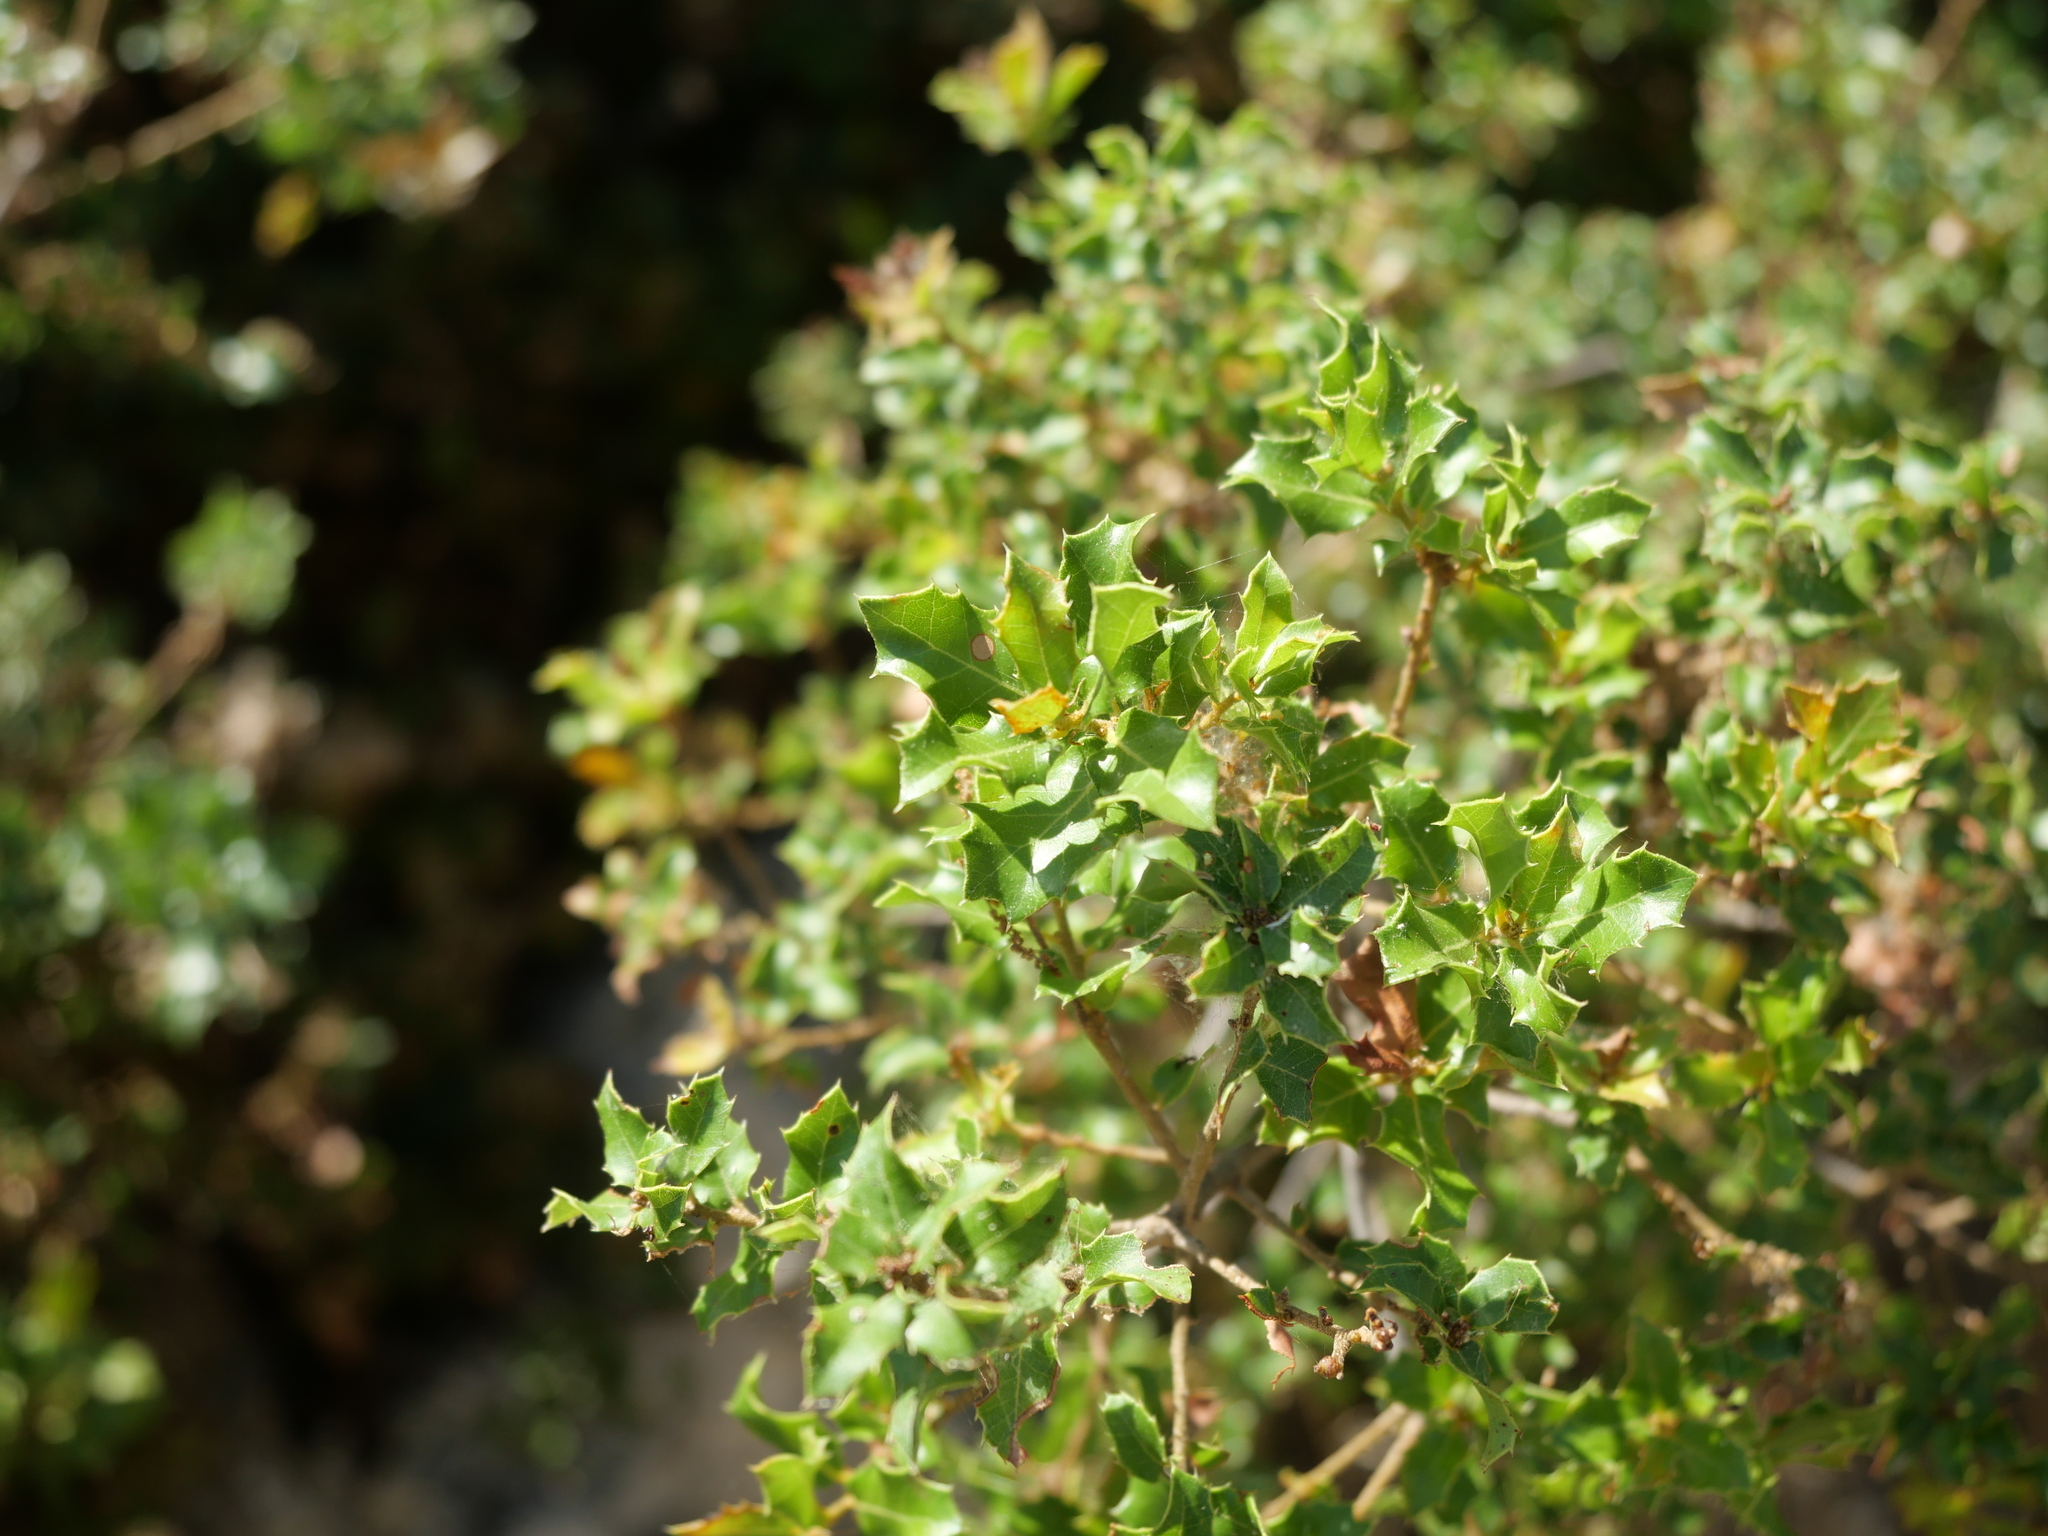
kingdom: Plantae
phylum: Tracheophyta
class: Magnoliopsida
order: Fagales
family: Fagaceae
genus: Quercus
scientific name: Quercus coccifera
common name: Kermes oak
